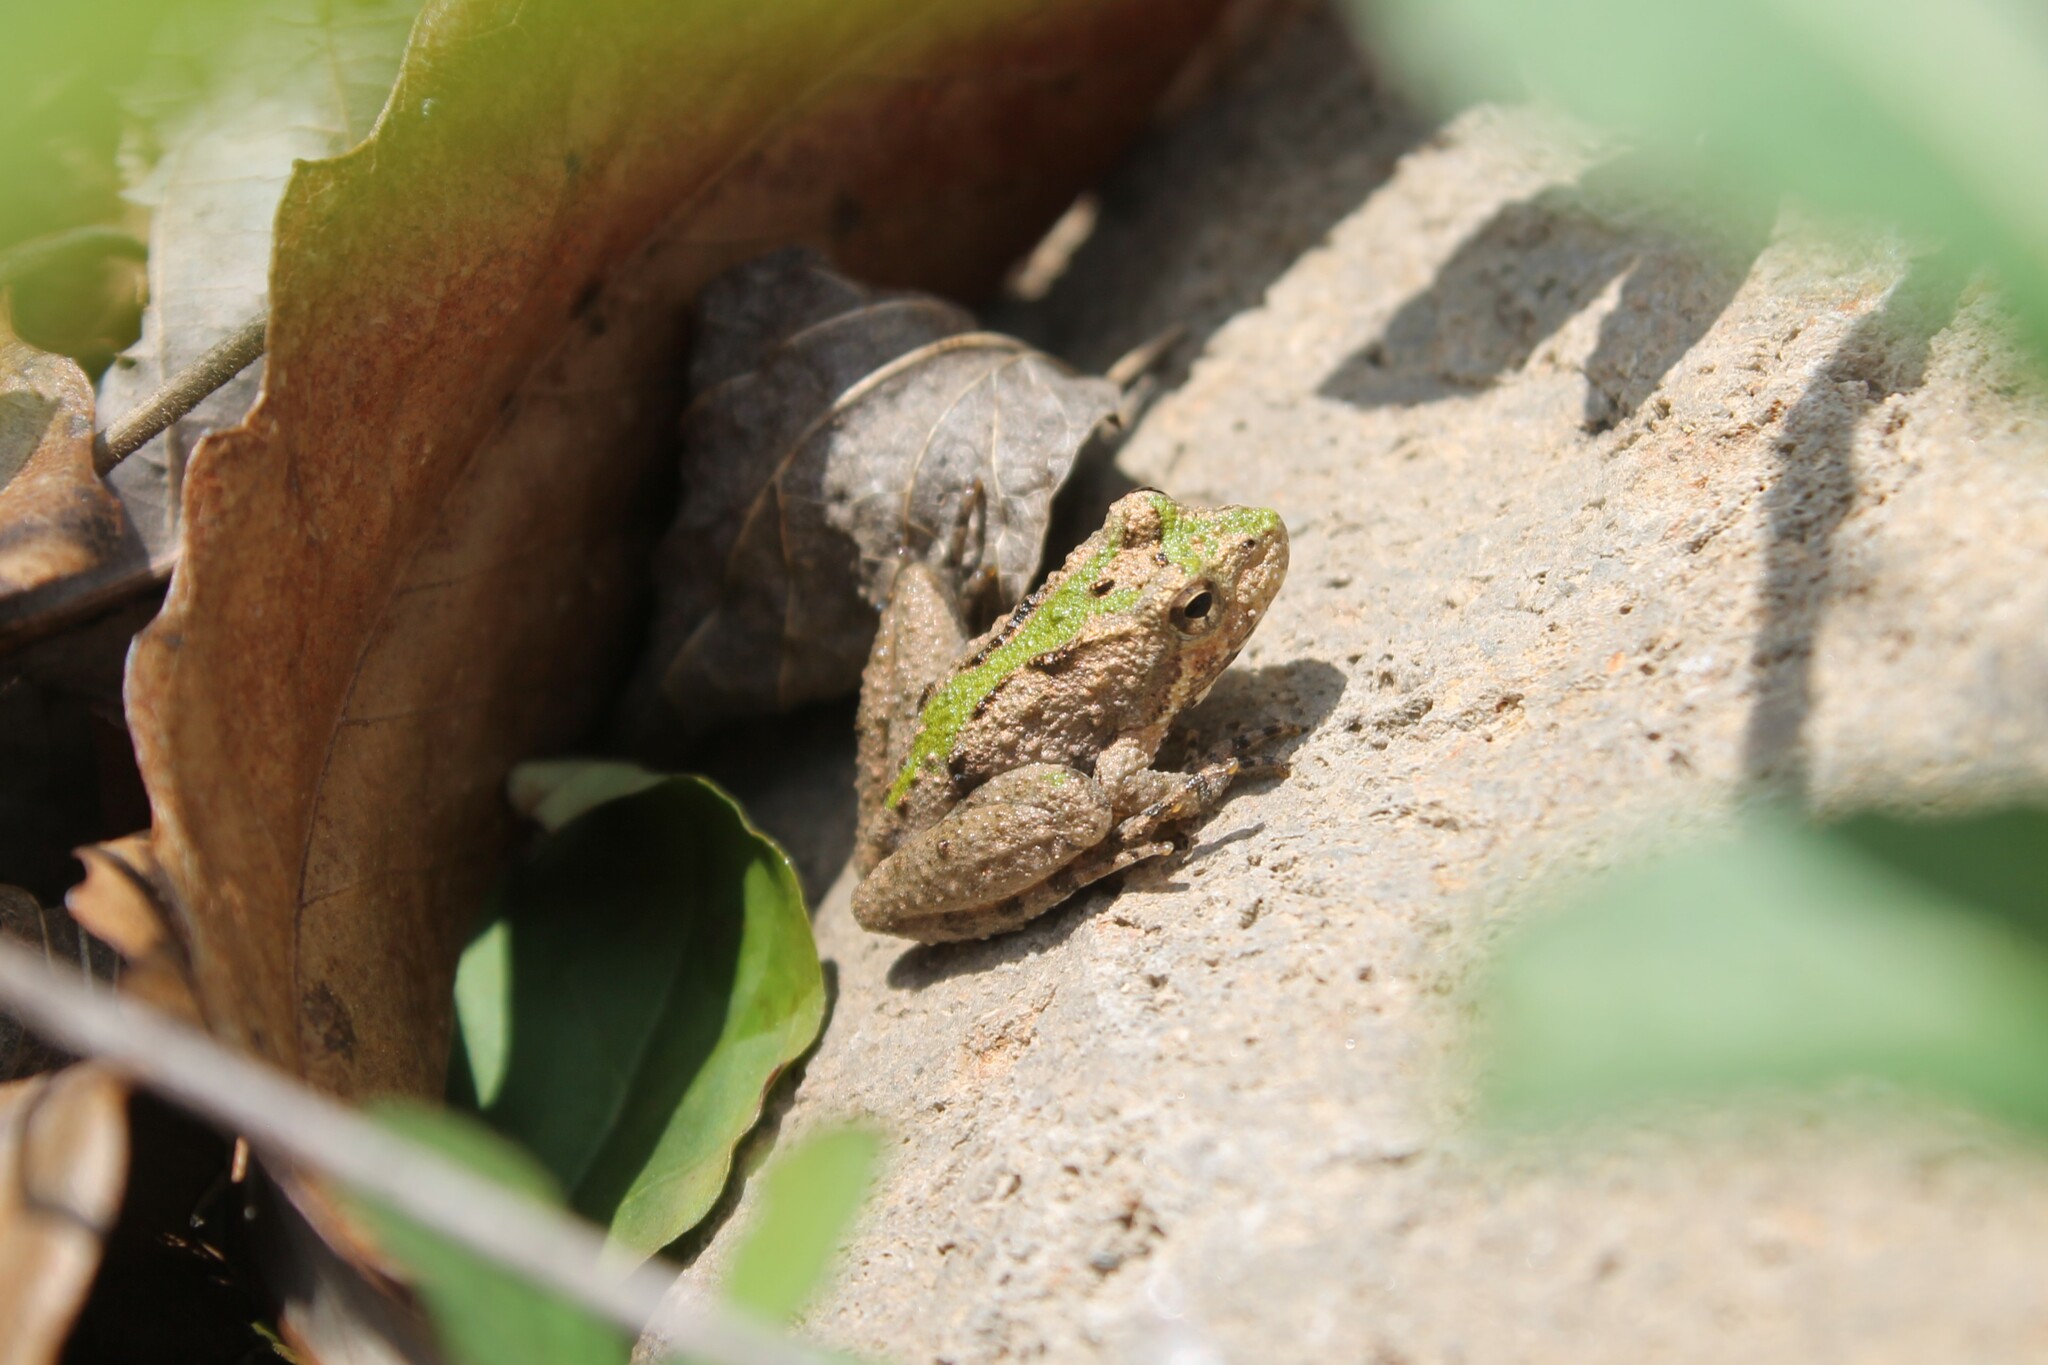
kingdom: Animalia
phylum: Chordata
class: Amphibia
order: Anura
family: Hylidae
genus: Acris
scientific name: Acris crepitans
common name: Northern cricket frog
